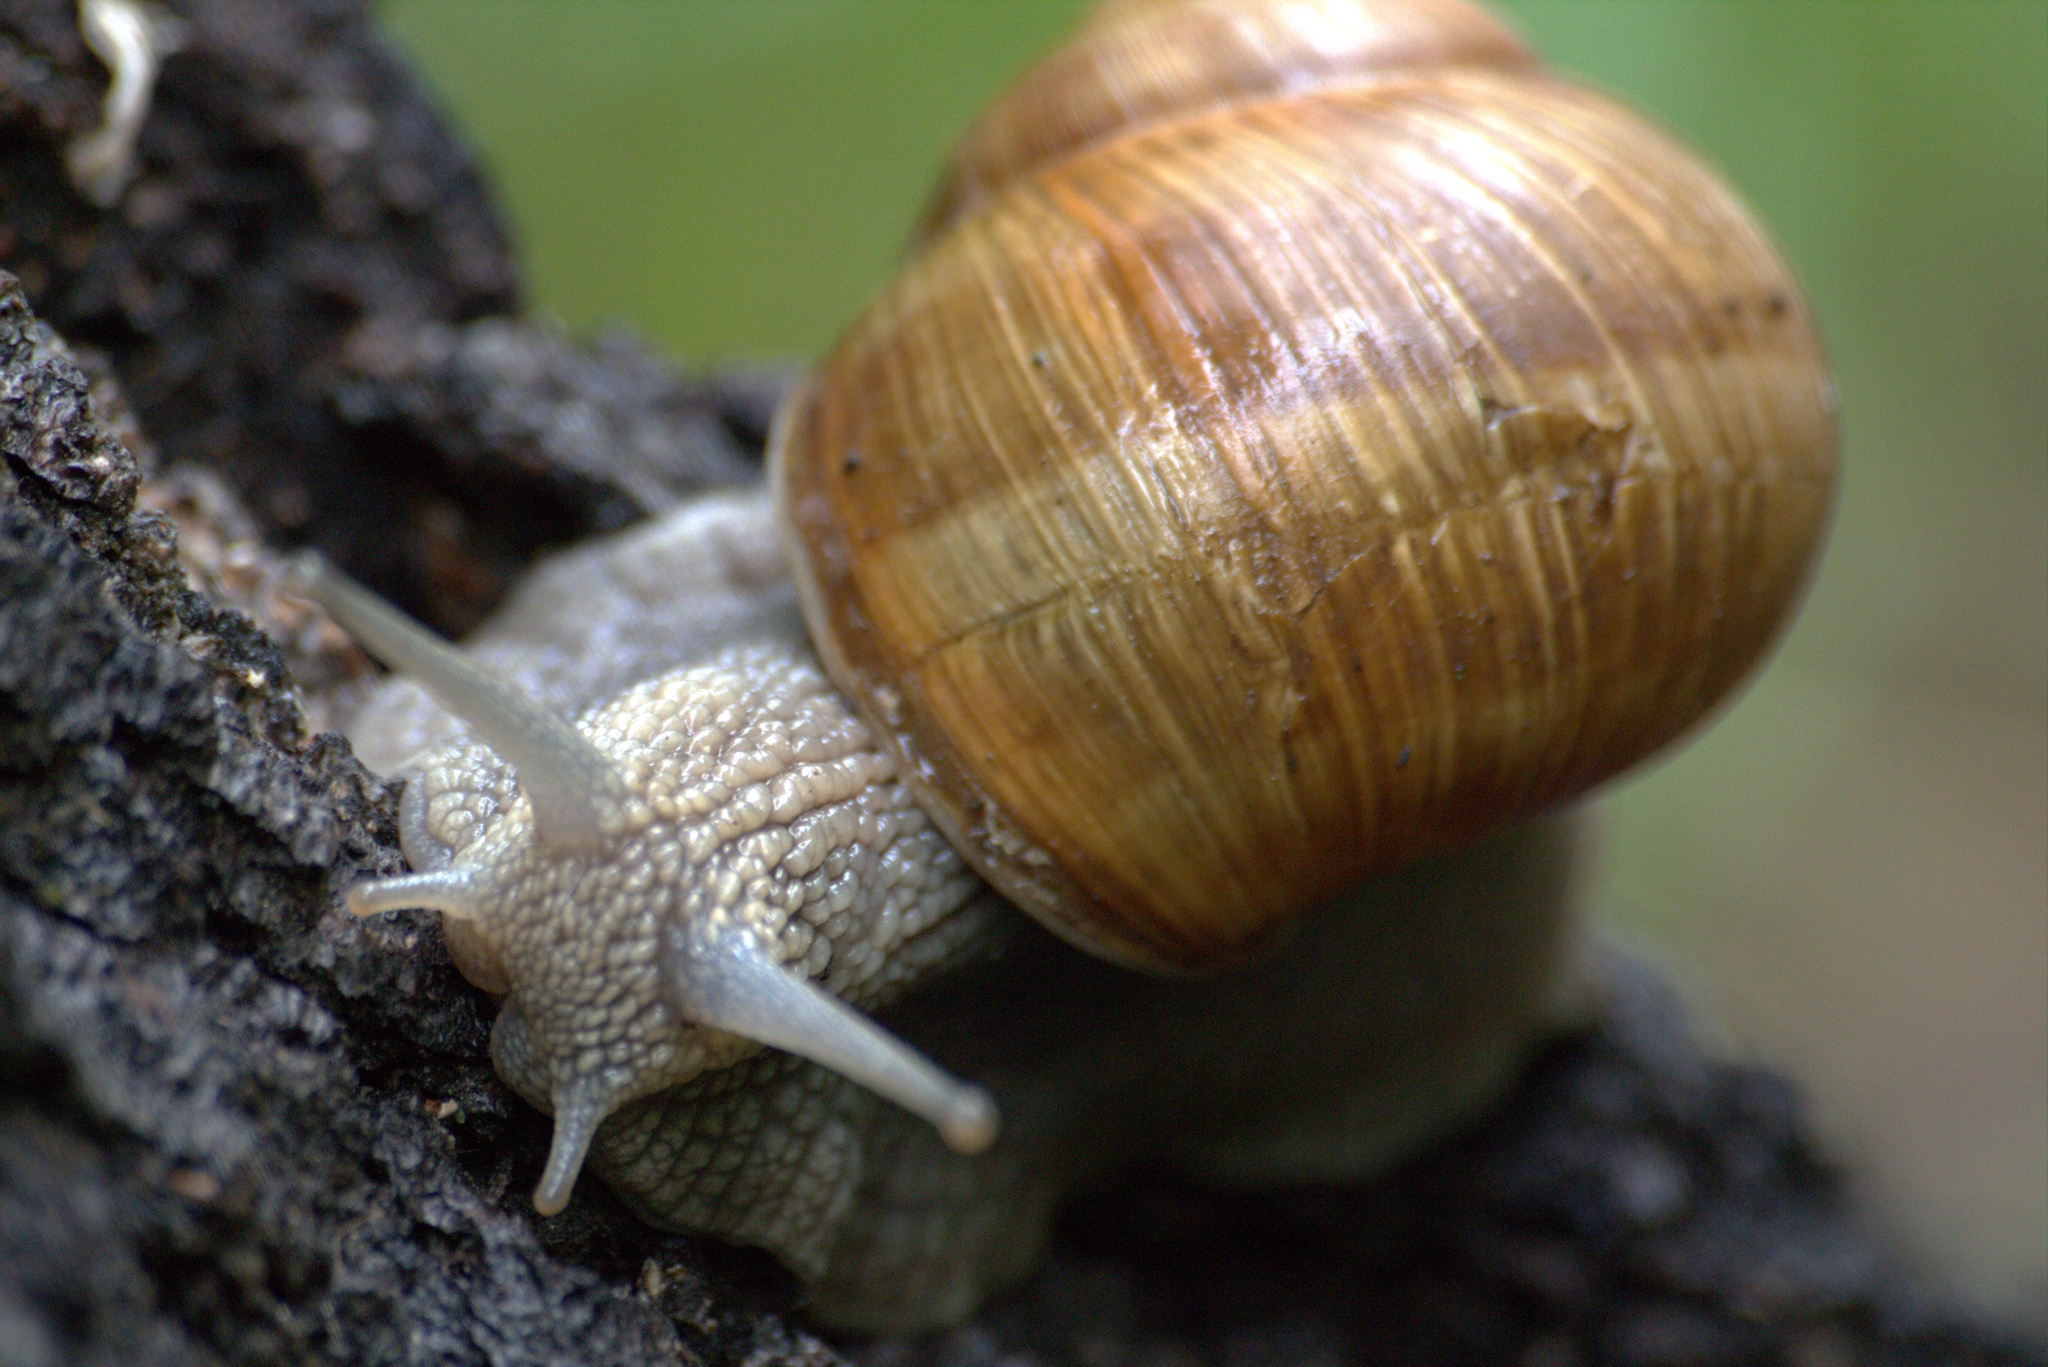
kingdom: Animalia
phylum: Mollusca
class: Gastropoda
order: Stylommatophora
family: Helicidae
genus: Helix
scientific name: Helix pomatia
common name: Roman snail
